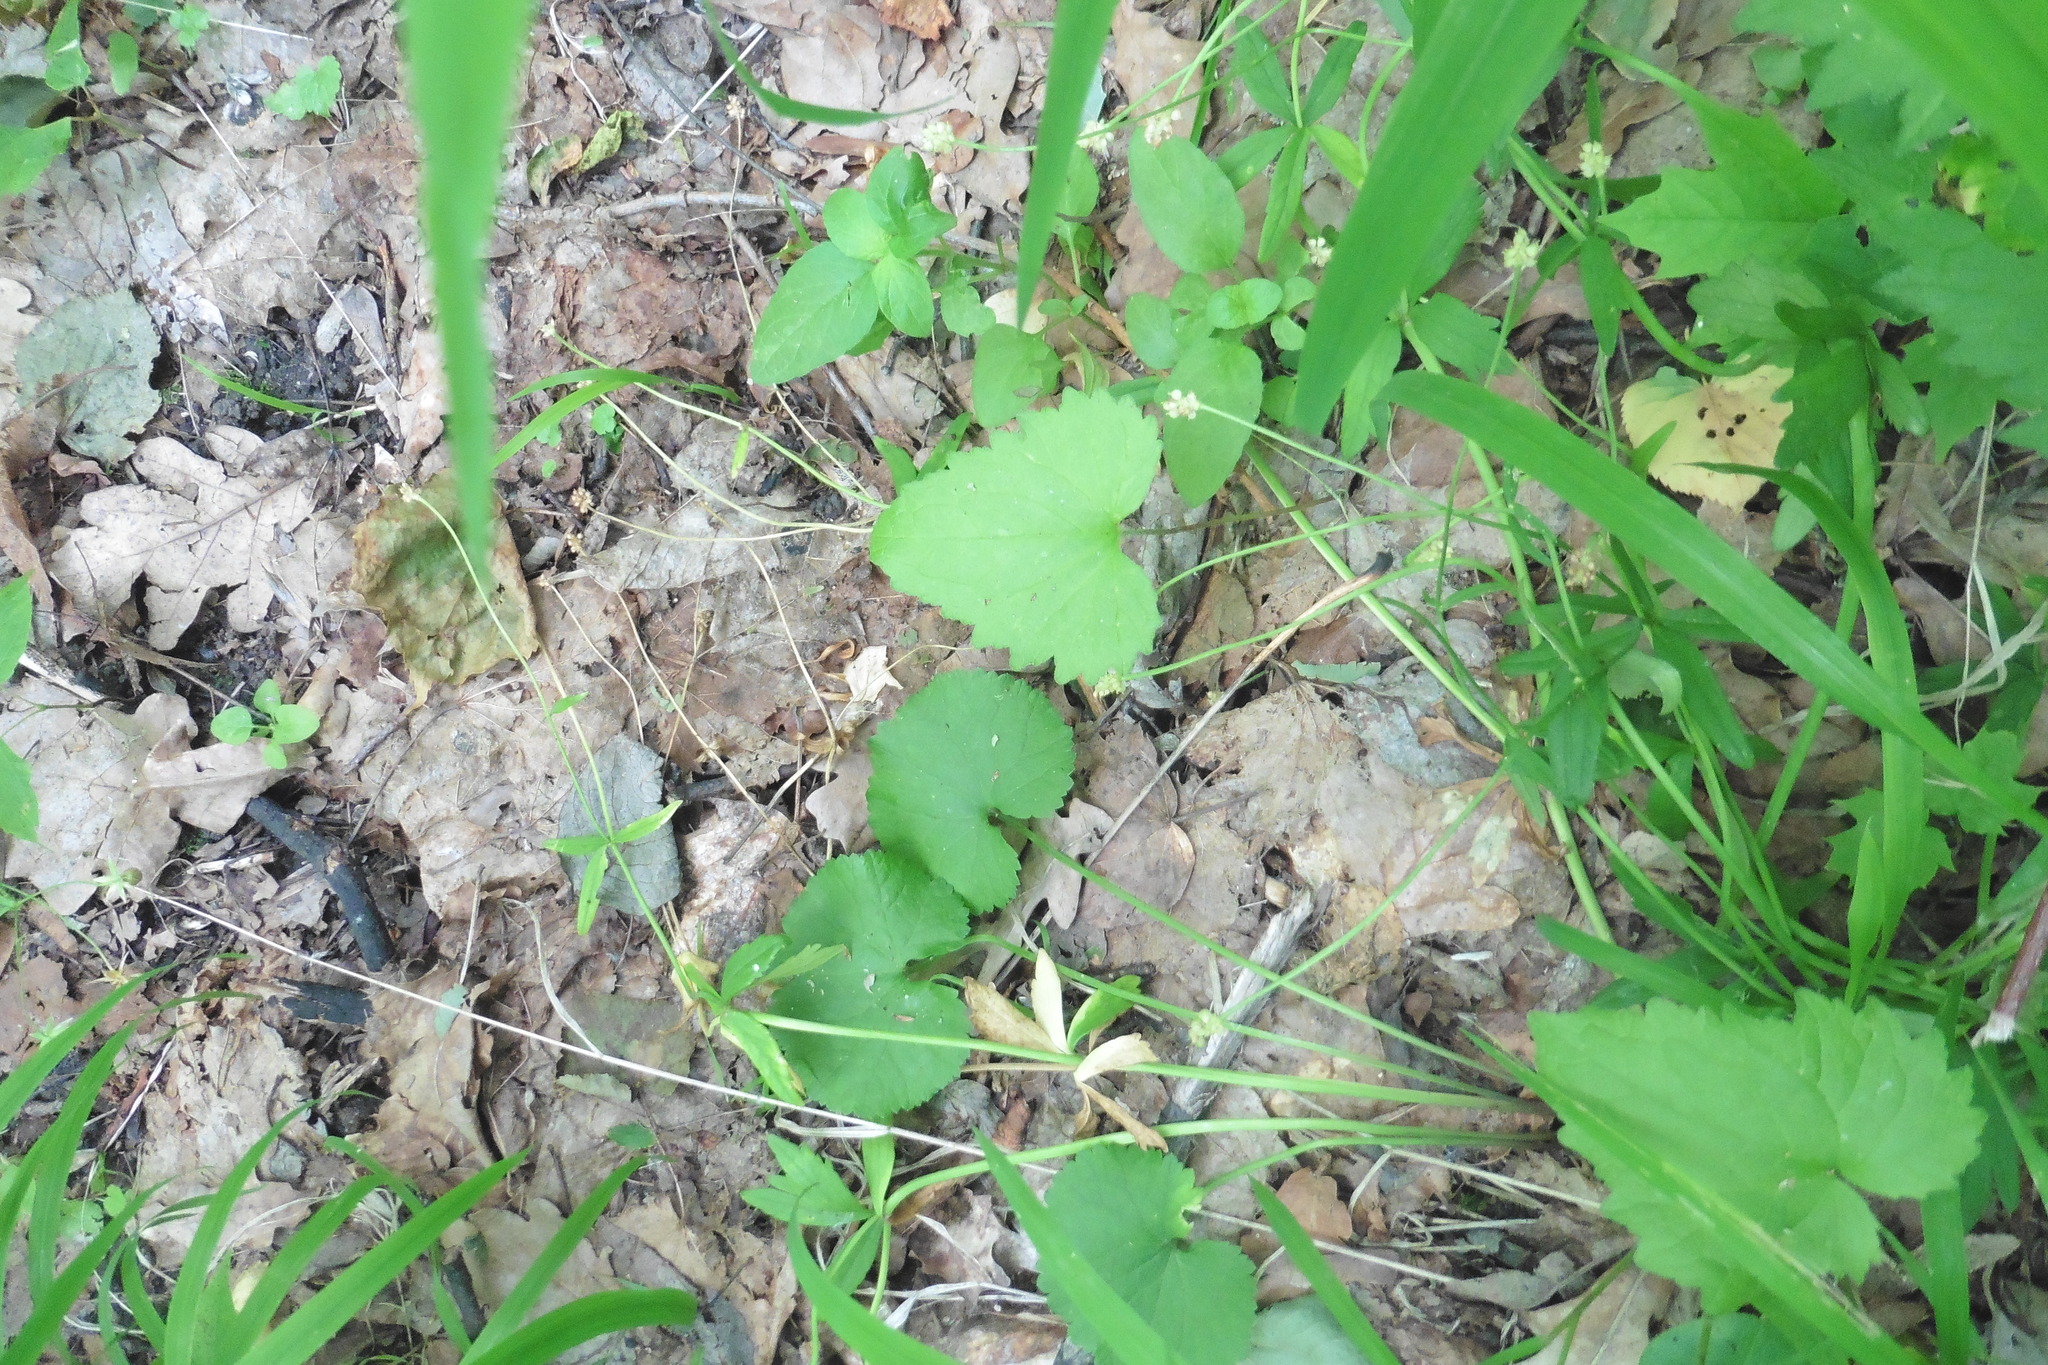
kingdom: Plantae
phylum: Tracheophyta
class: Magnoliopsida
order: Ranunculales
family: Ranunculaceae
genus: Ranunculus
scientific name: Ranunculus cassubicus
